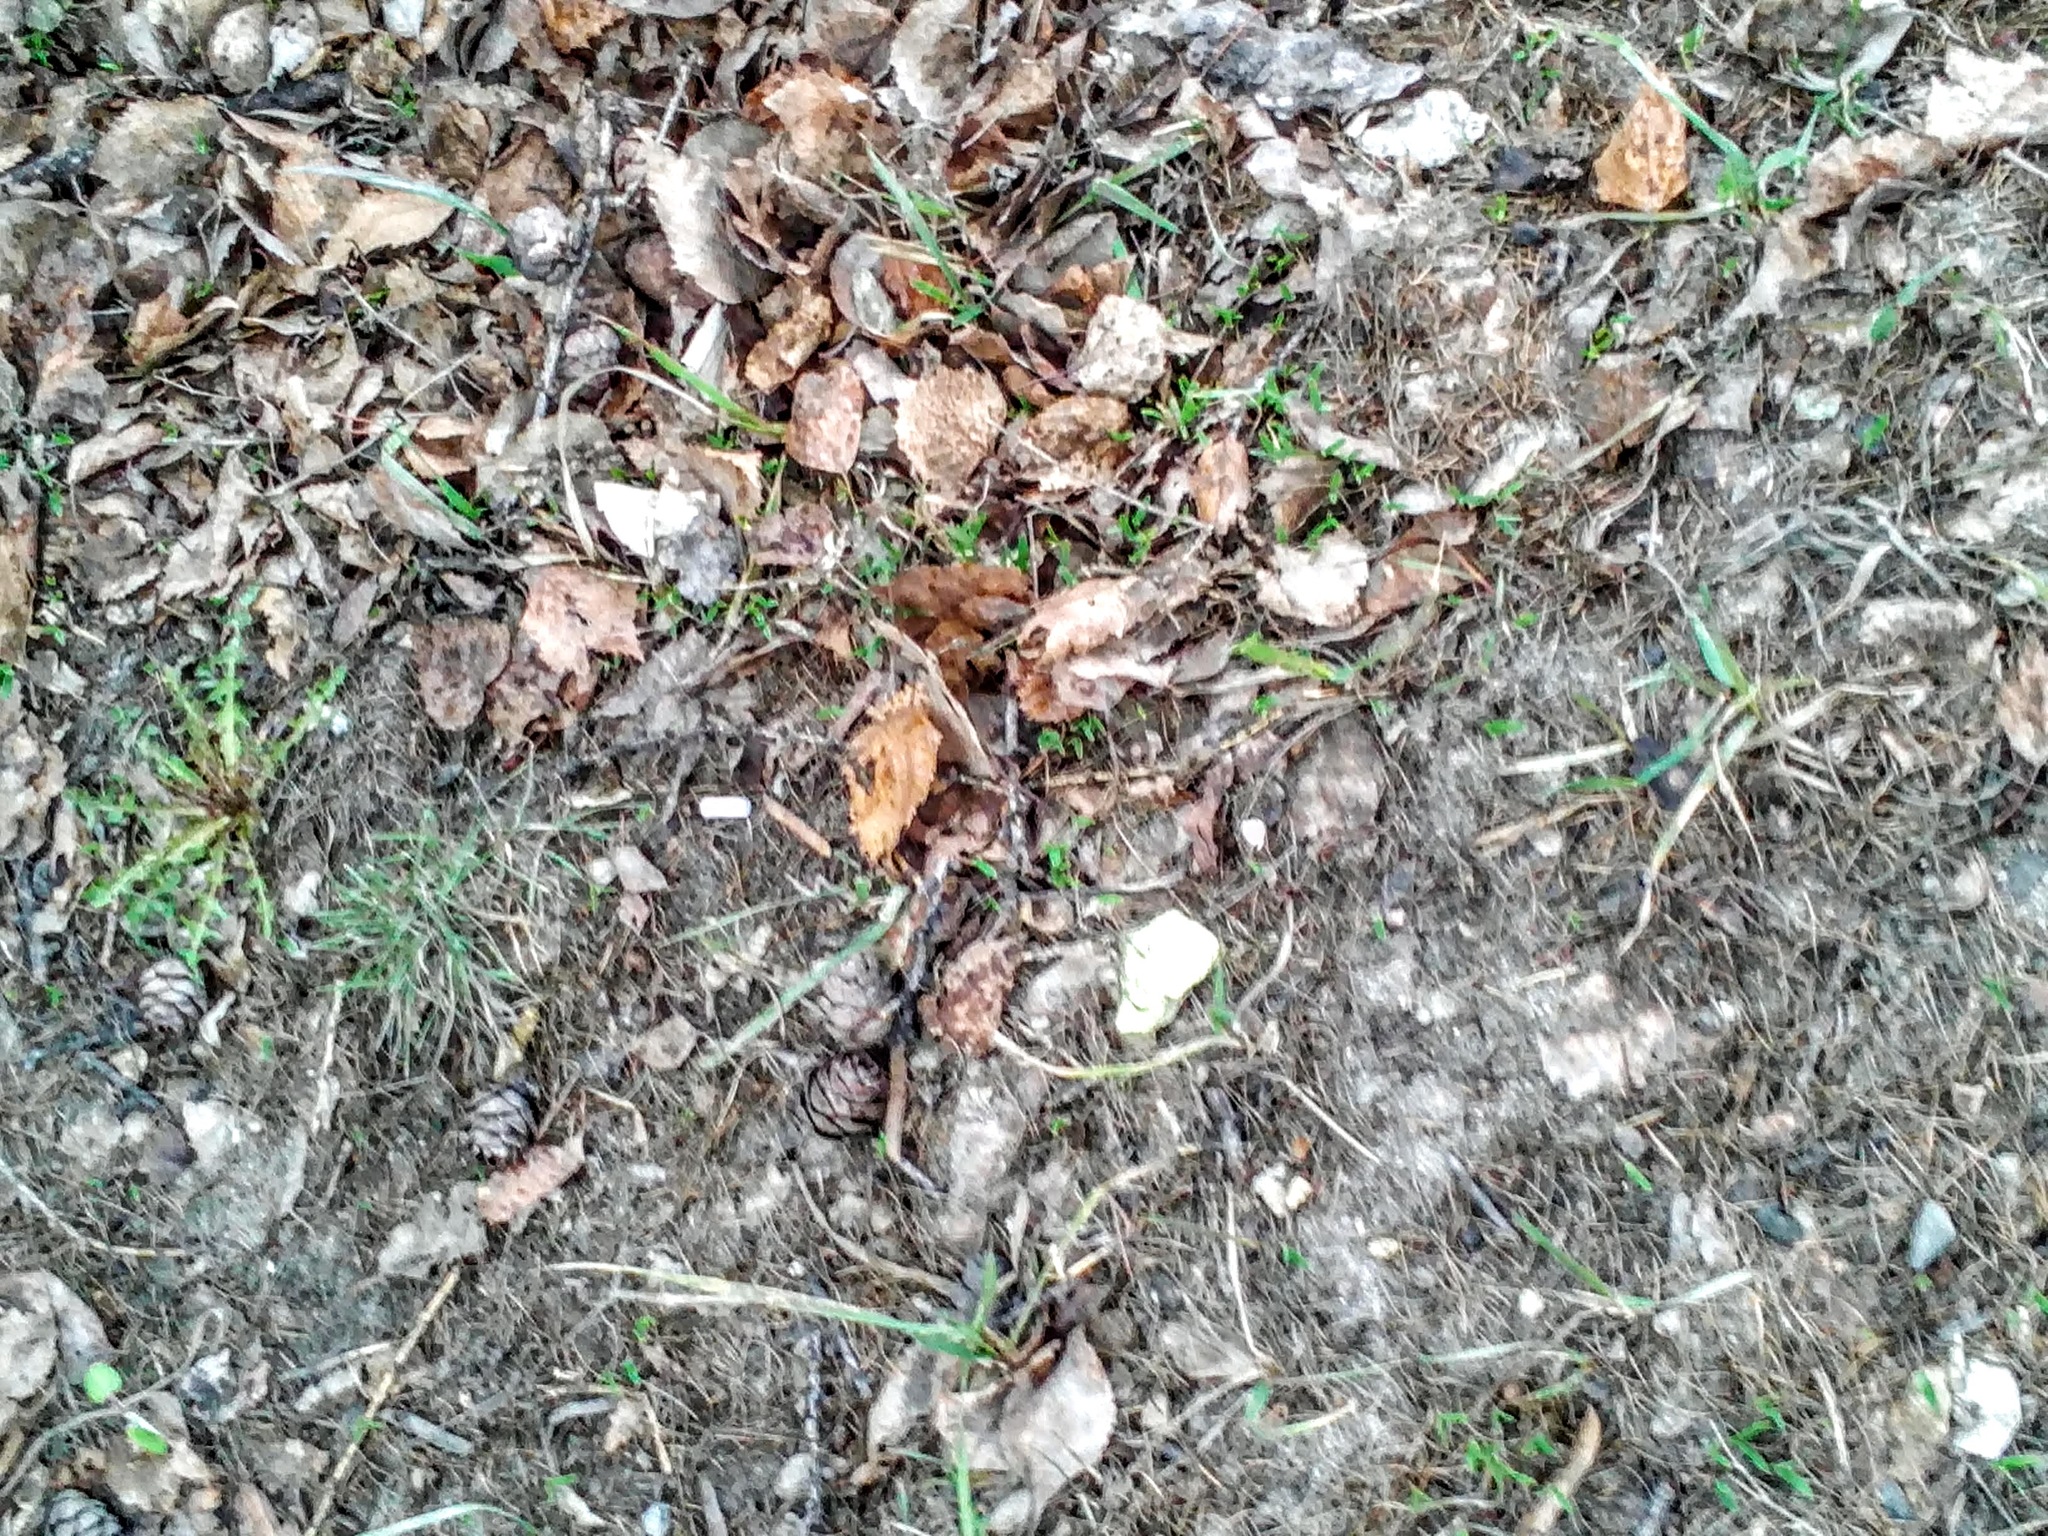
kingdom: Plantae
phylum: Tracheophyta
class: Pinopsida
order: Pinales
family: Pinaceae
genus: Larix
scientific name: Larix sibirica
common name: Siberian larch
